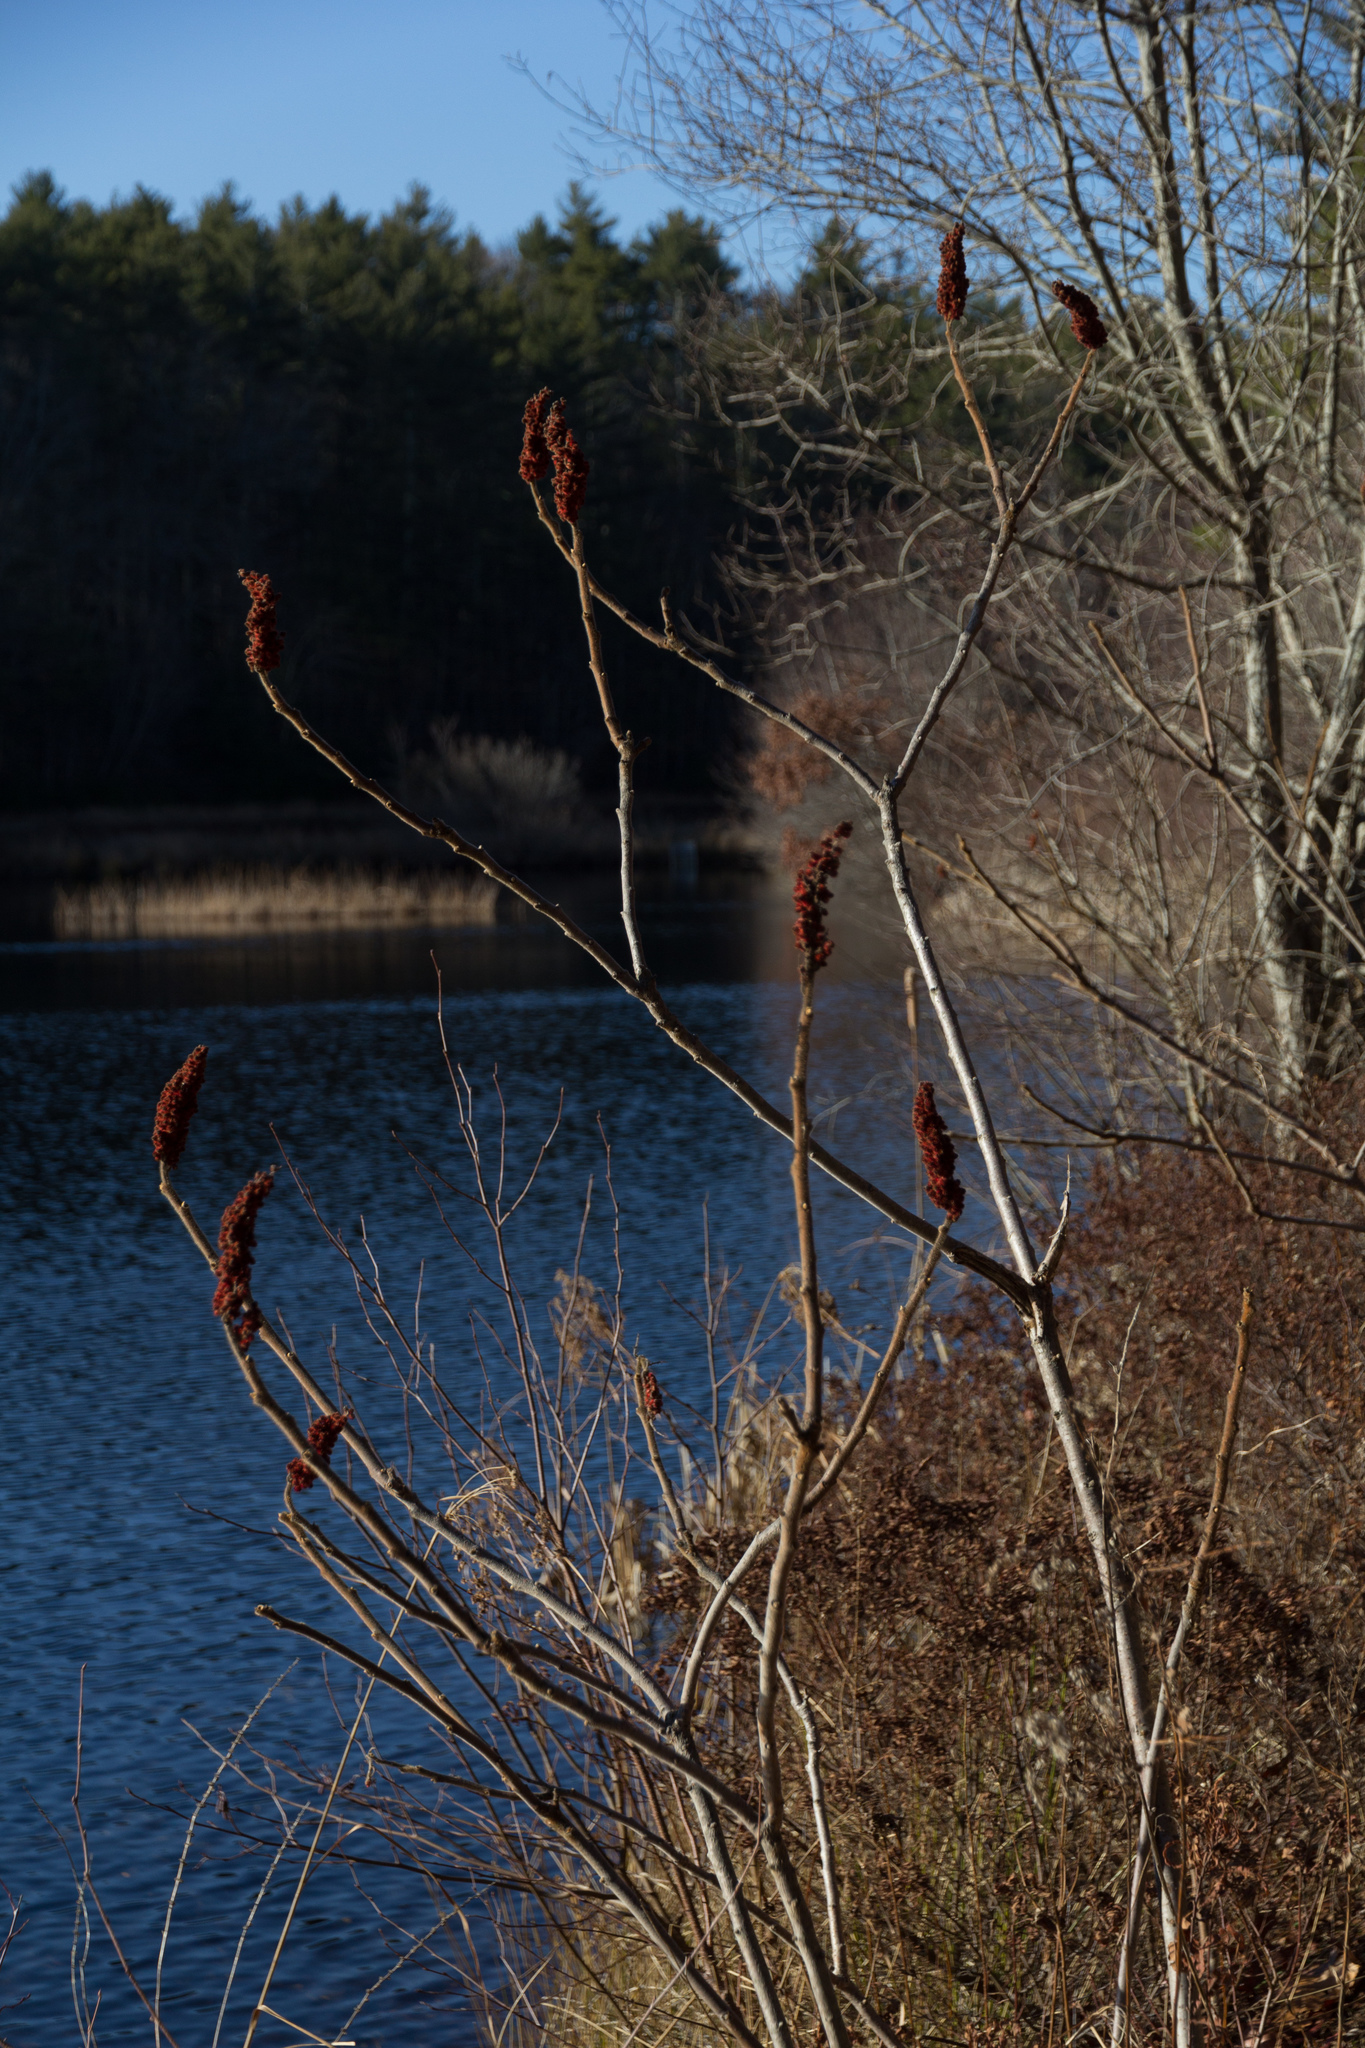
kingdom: Plantae
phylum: Tracheophyta
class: Magnoliopsida
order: Sapindales
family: Anacardiaceae
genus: Rhus
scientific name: Rhus typhina
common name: Staghorn sumac
